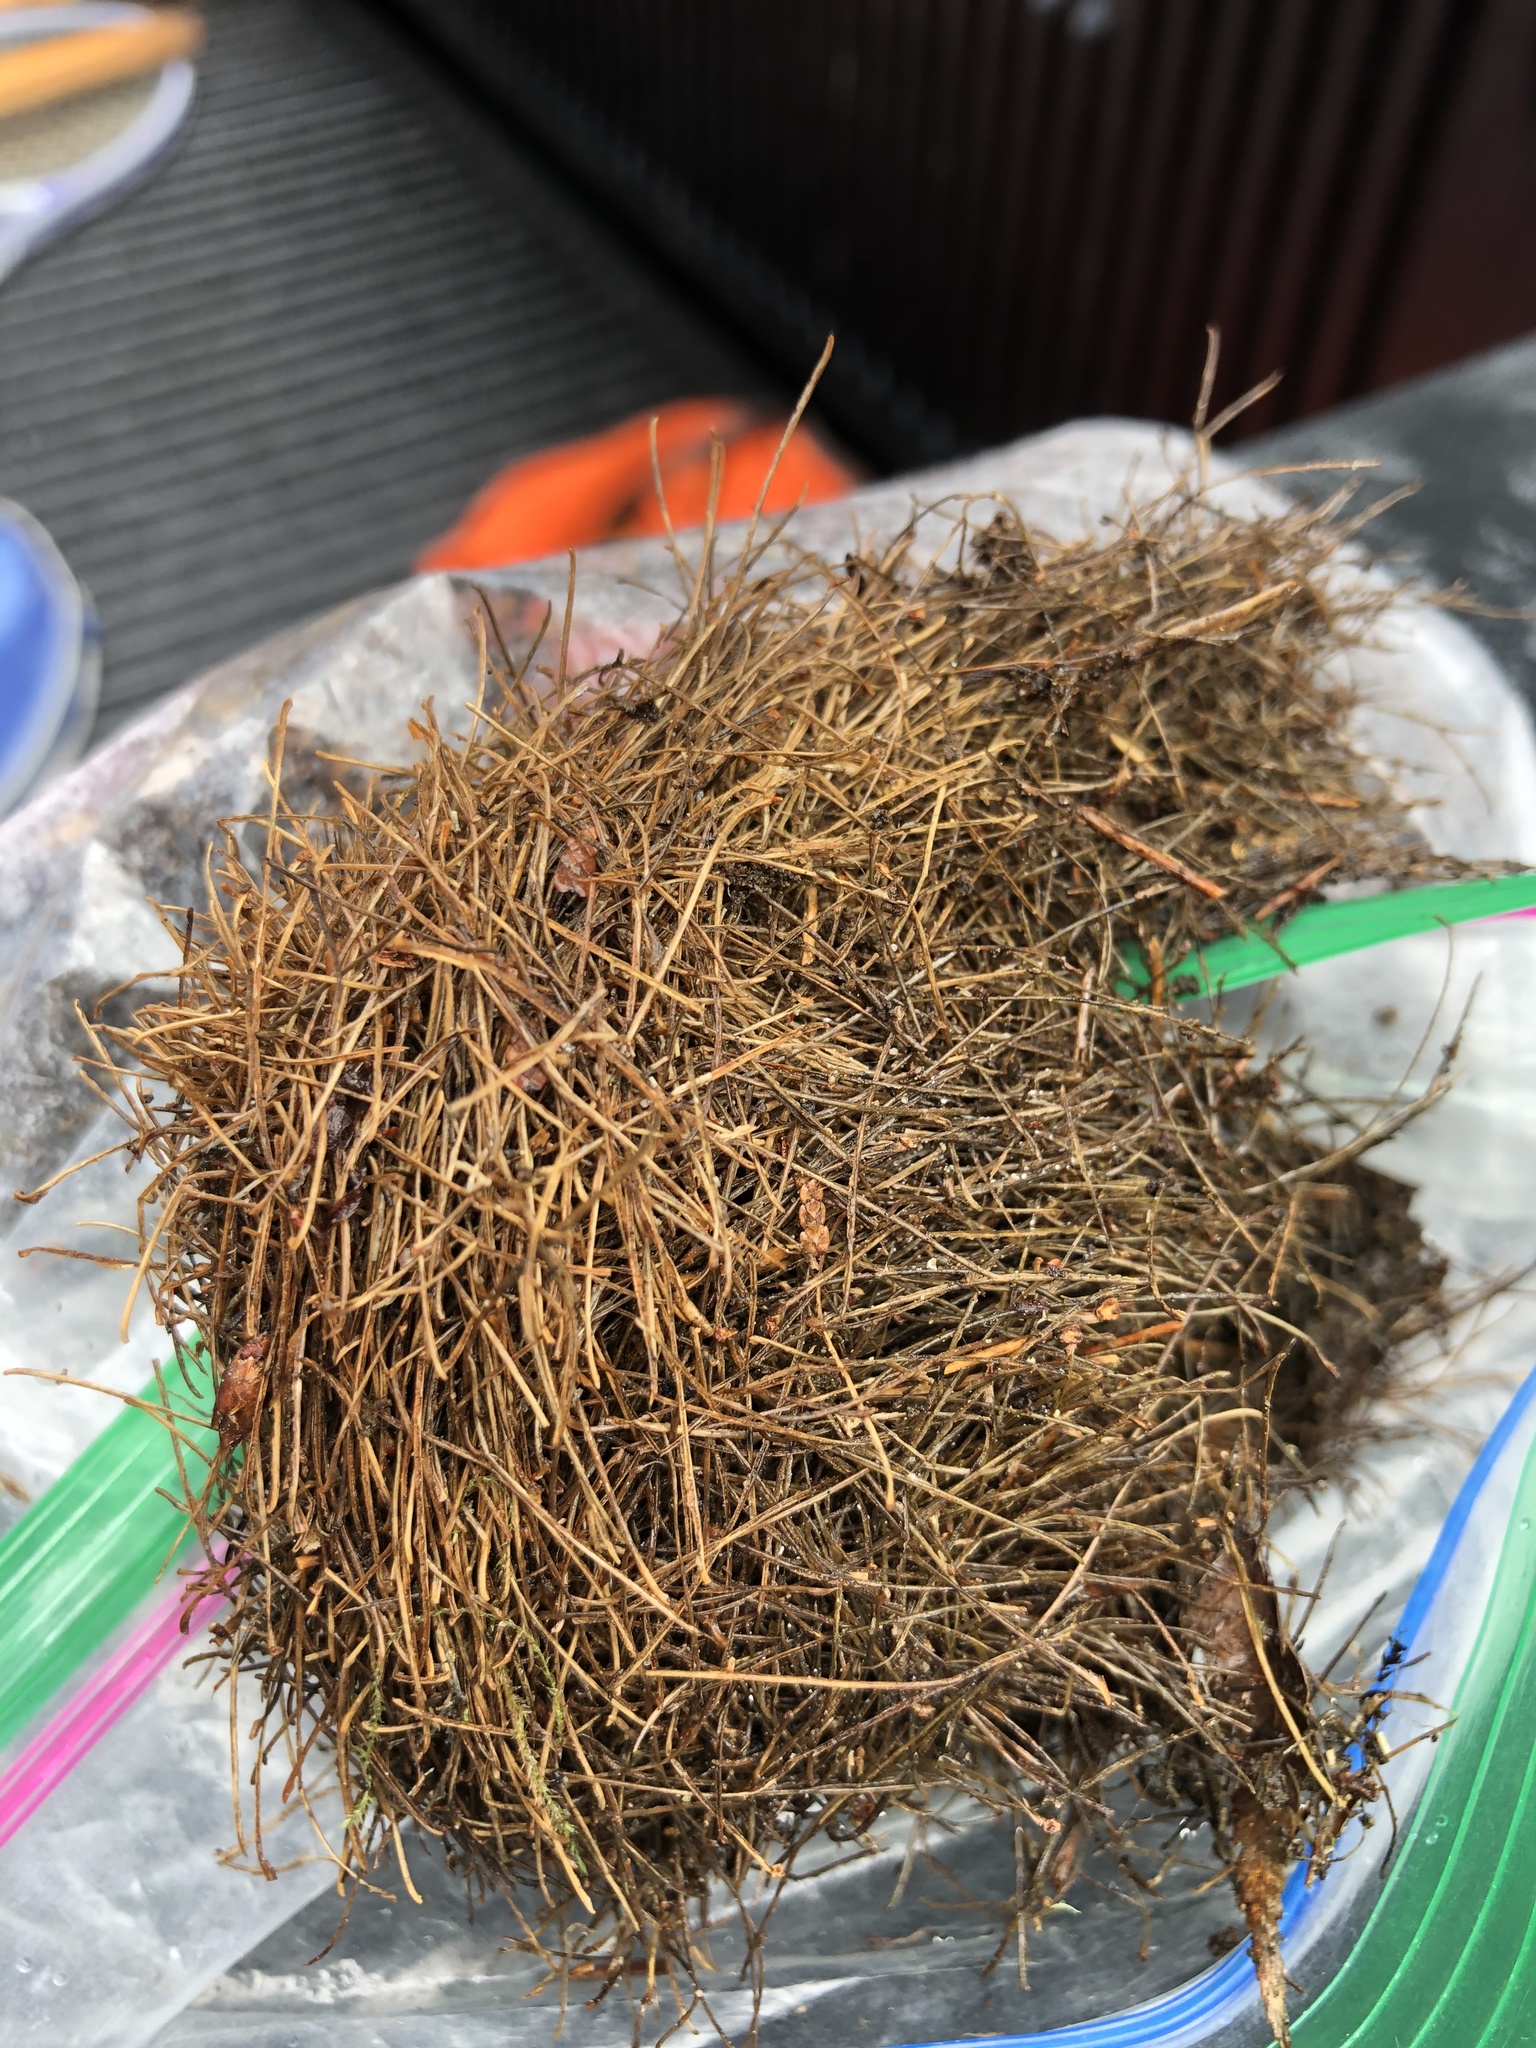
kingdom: Animalia
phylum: Chordata
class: Mammalia
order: Rodentia
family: Cricetidae
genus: Arborimus
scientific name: Arborimus longicaudus
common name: Red tree vole
